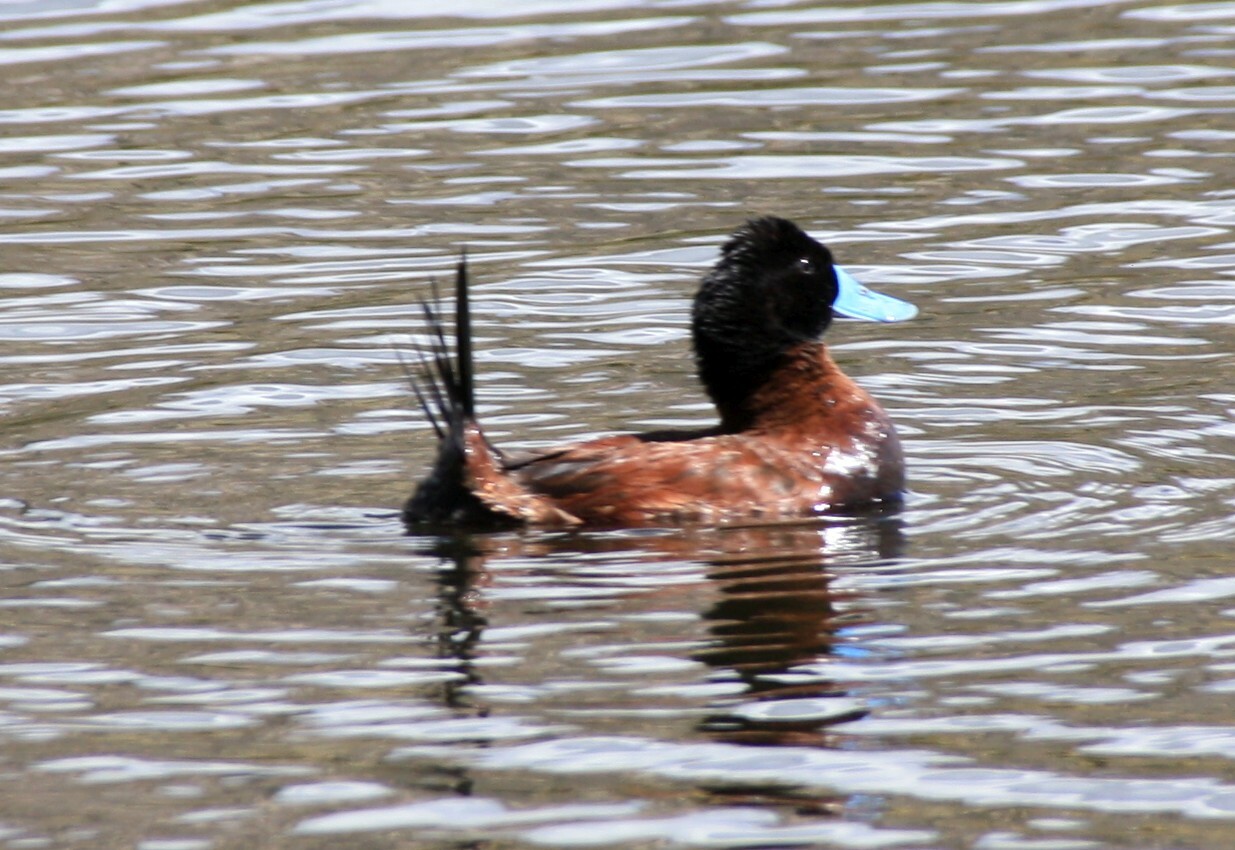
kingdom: Animalia
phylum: Chordata
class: Aves
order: Anseriformes
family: Anatidae
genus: Oxyura
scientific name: Oxyura ferruginea
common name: Andean duck
